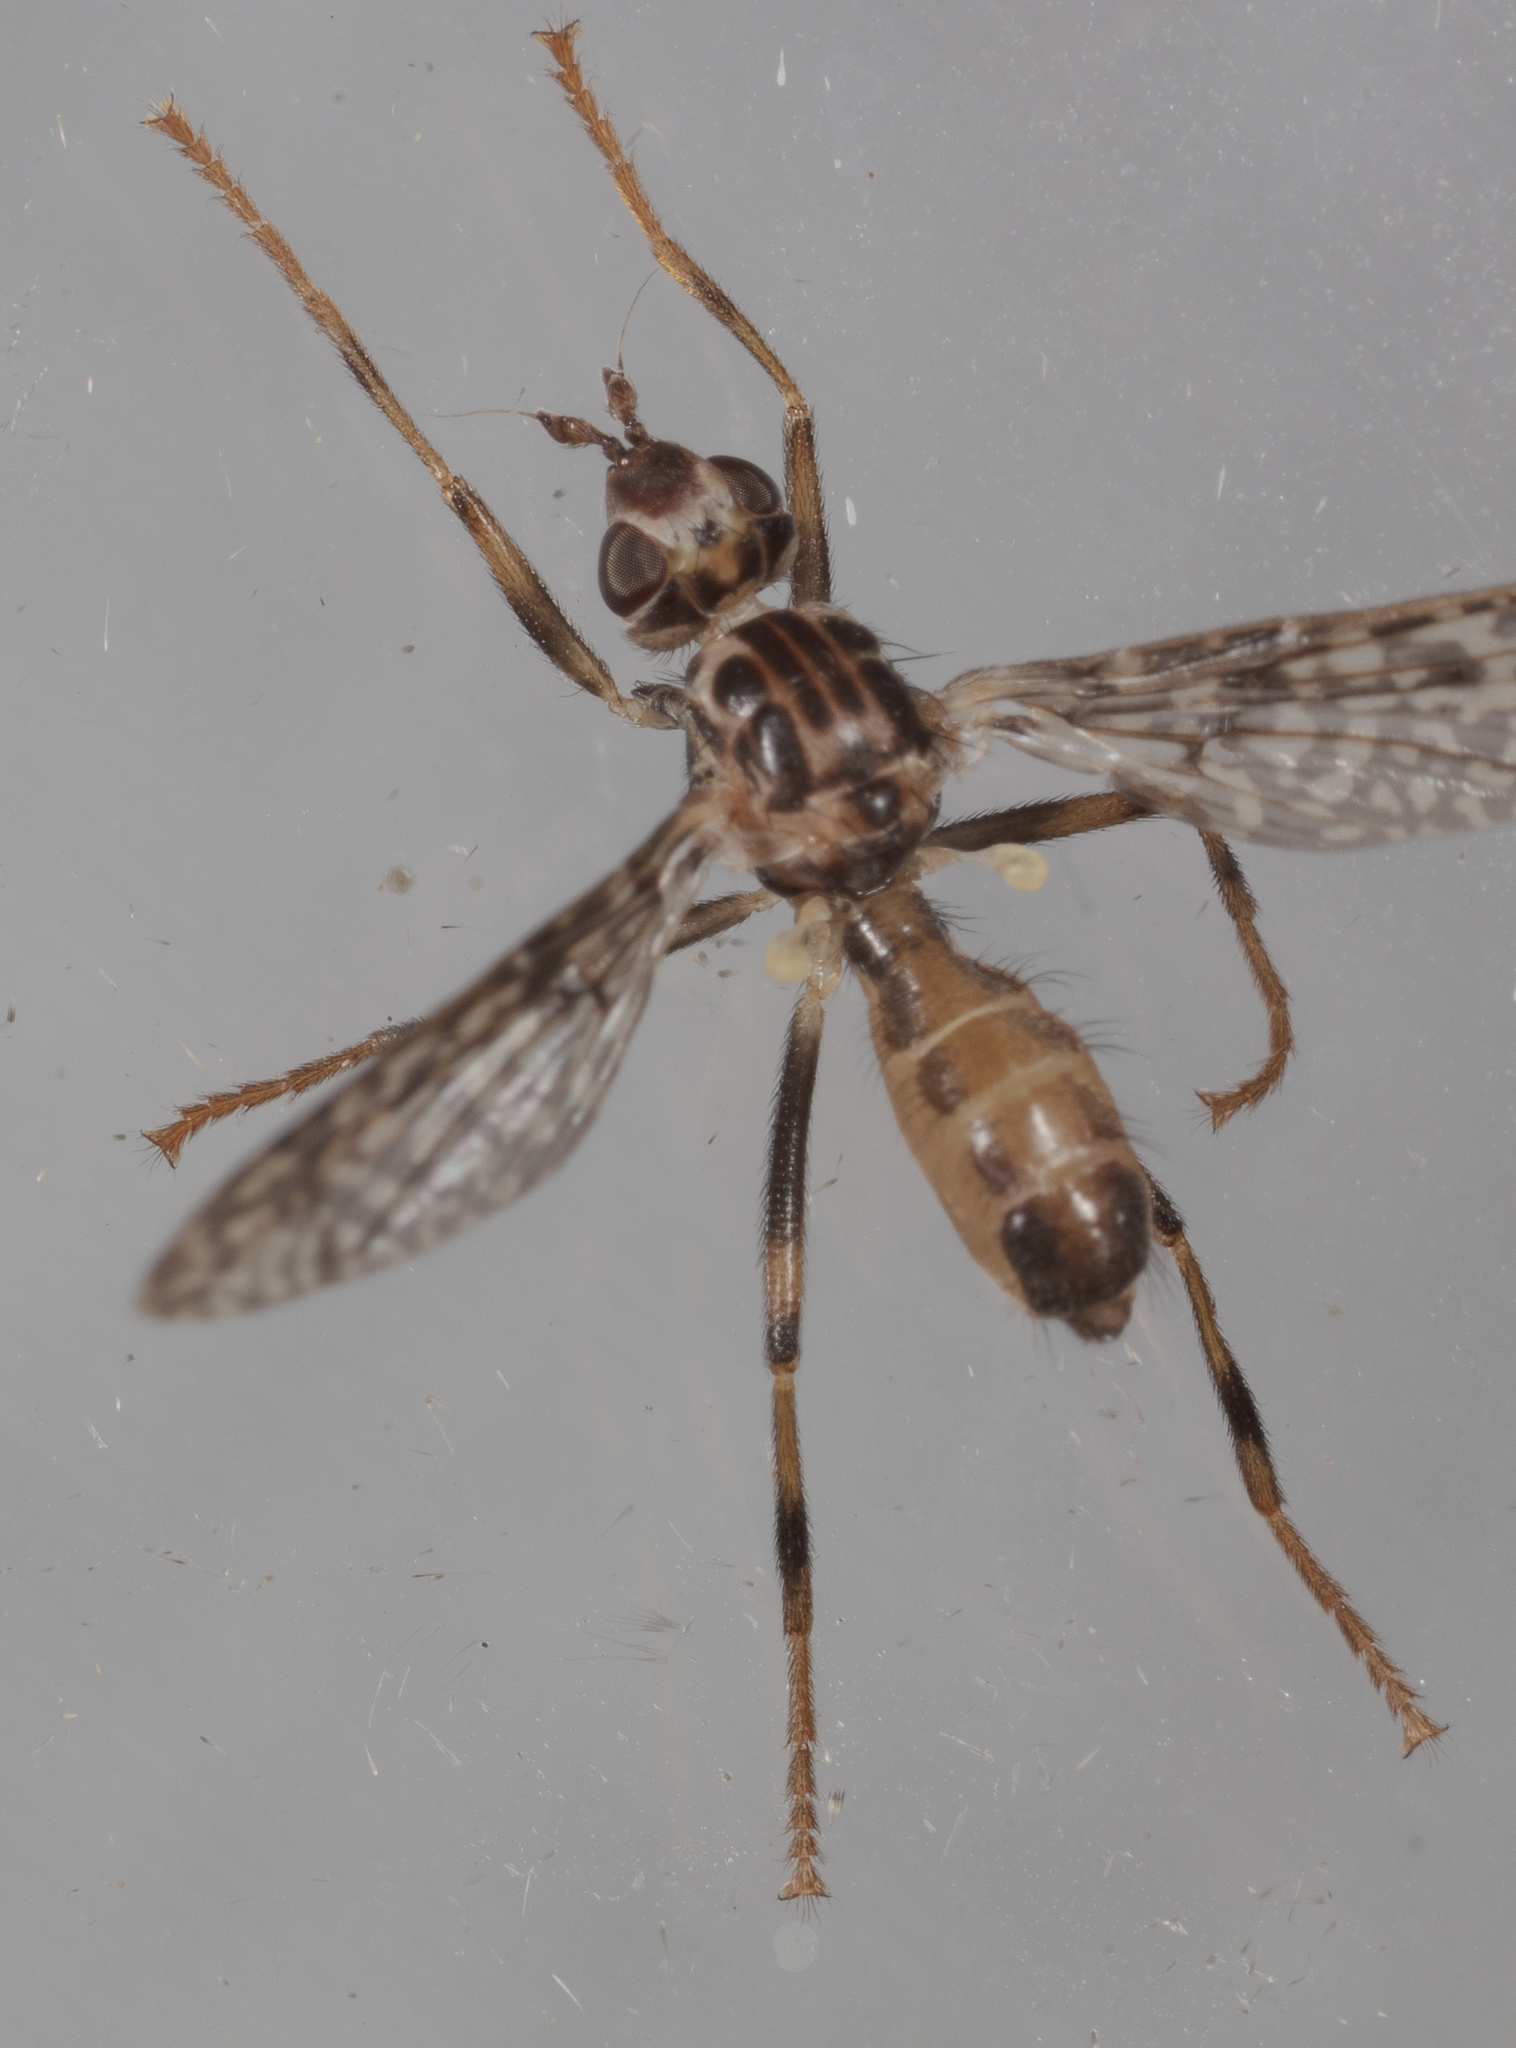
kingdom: Animalia
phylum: Arthropoda
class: Insecta
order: Diptera
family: Pyrgotidae
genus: Boreothrinax
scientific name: Boreothrinax
